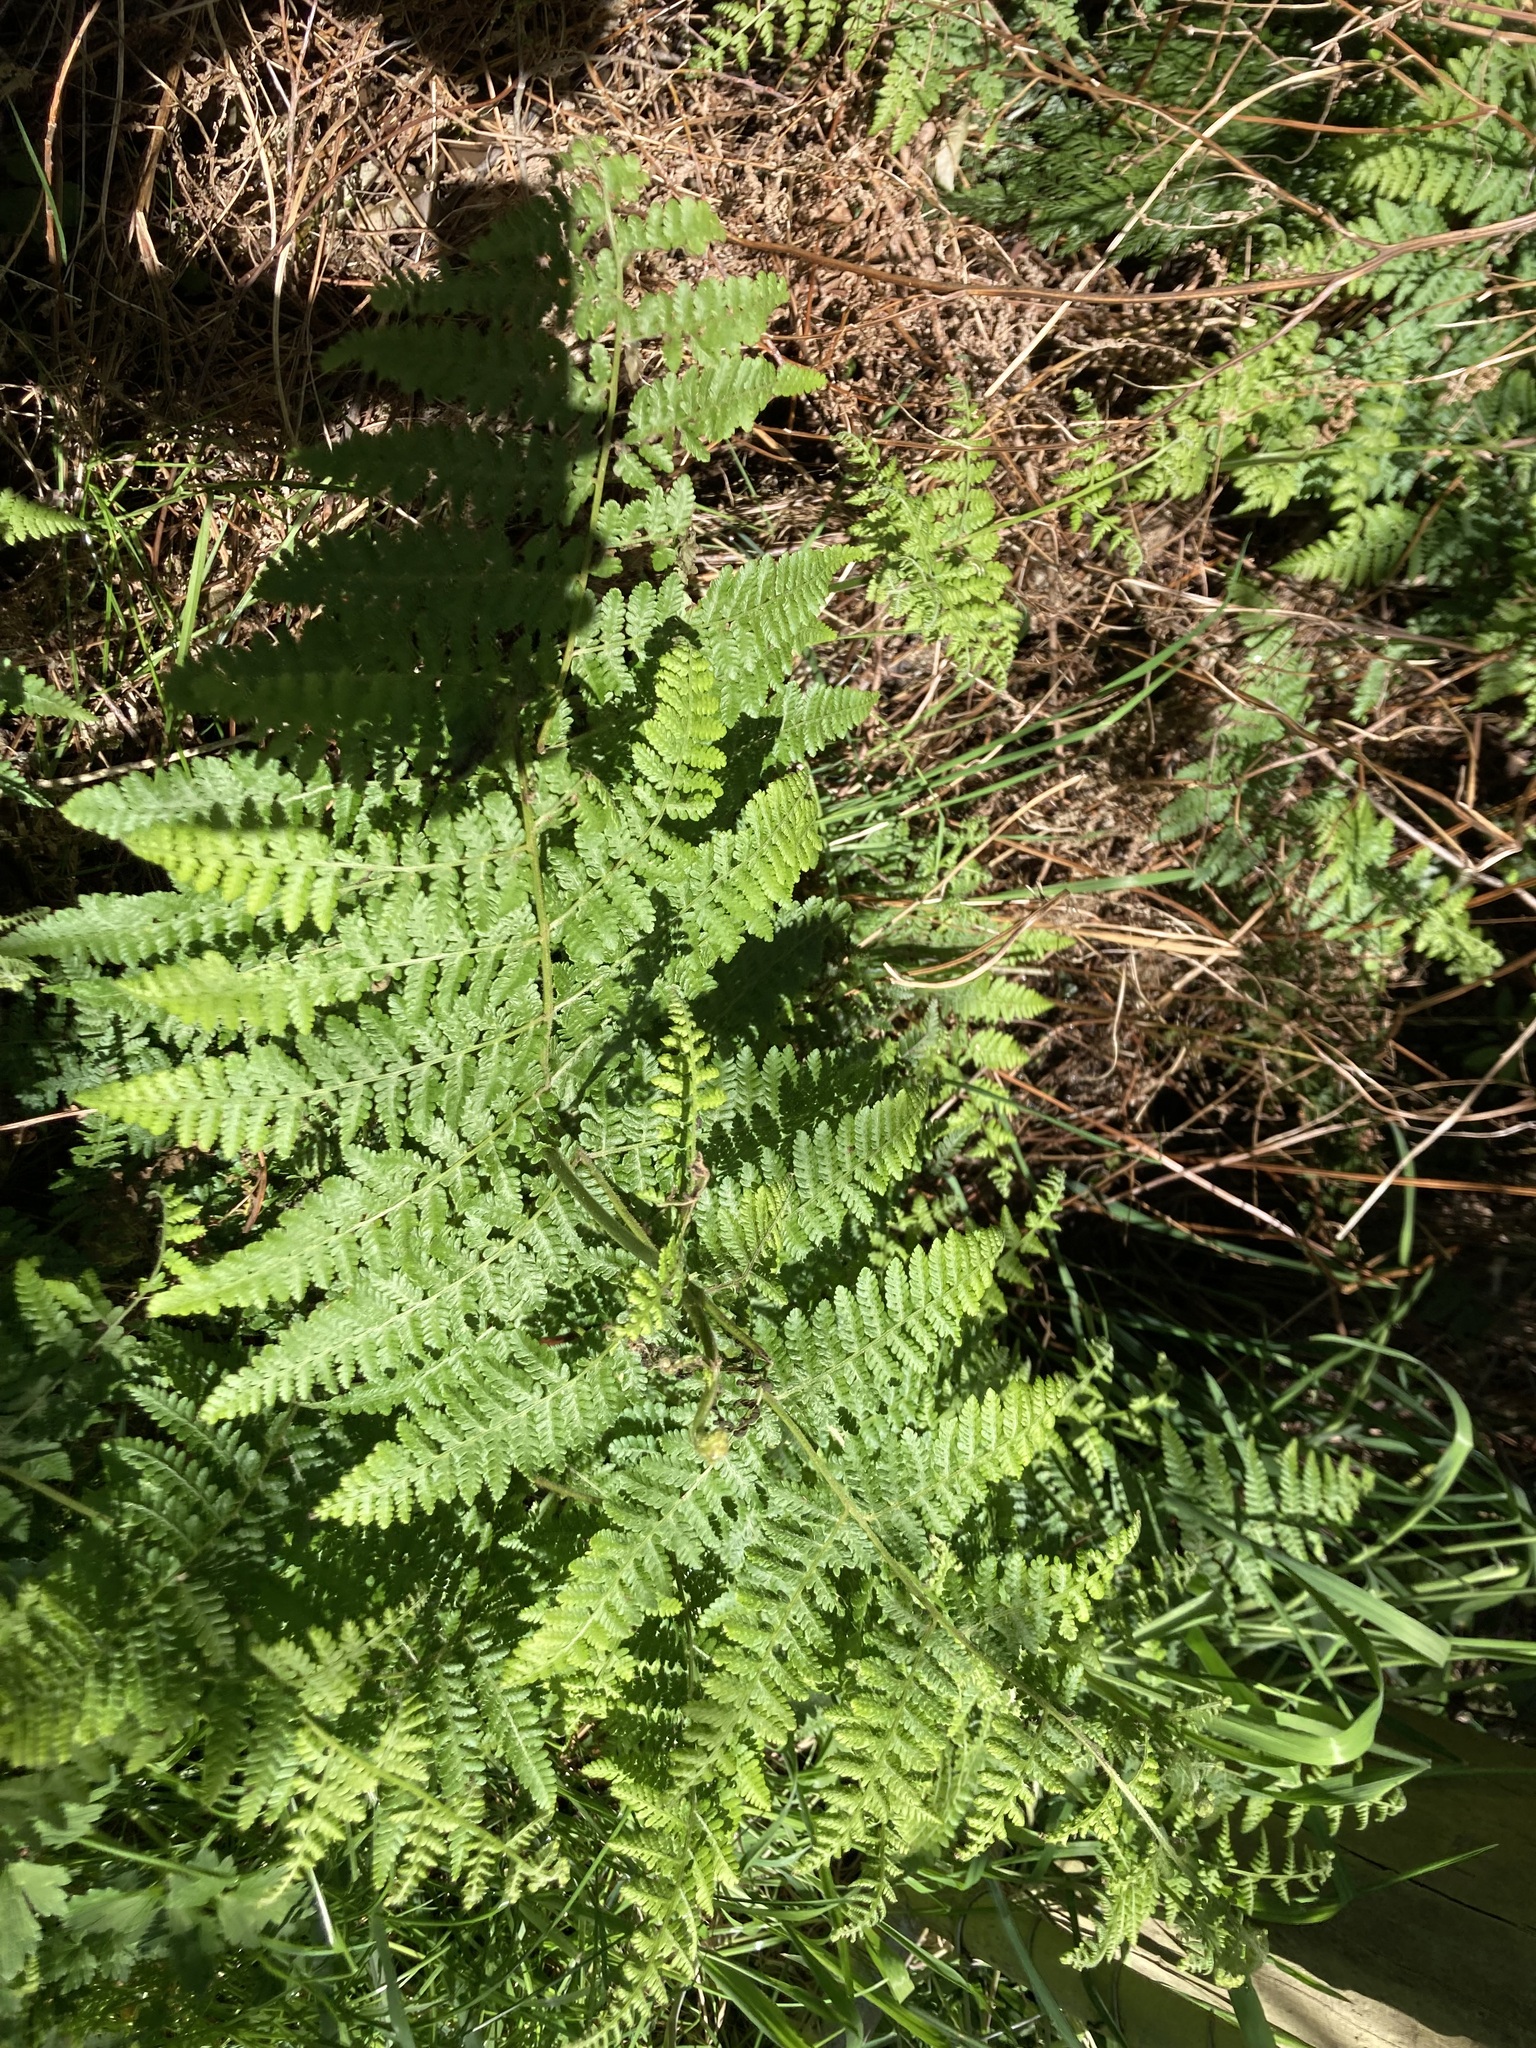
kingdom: Plantae
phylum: Tracheophyta
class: Polypodiopsida
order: Polypodiales
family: Dennstaedtiaceae
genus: Hypolepis
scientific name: Hypolepis ambigua
